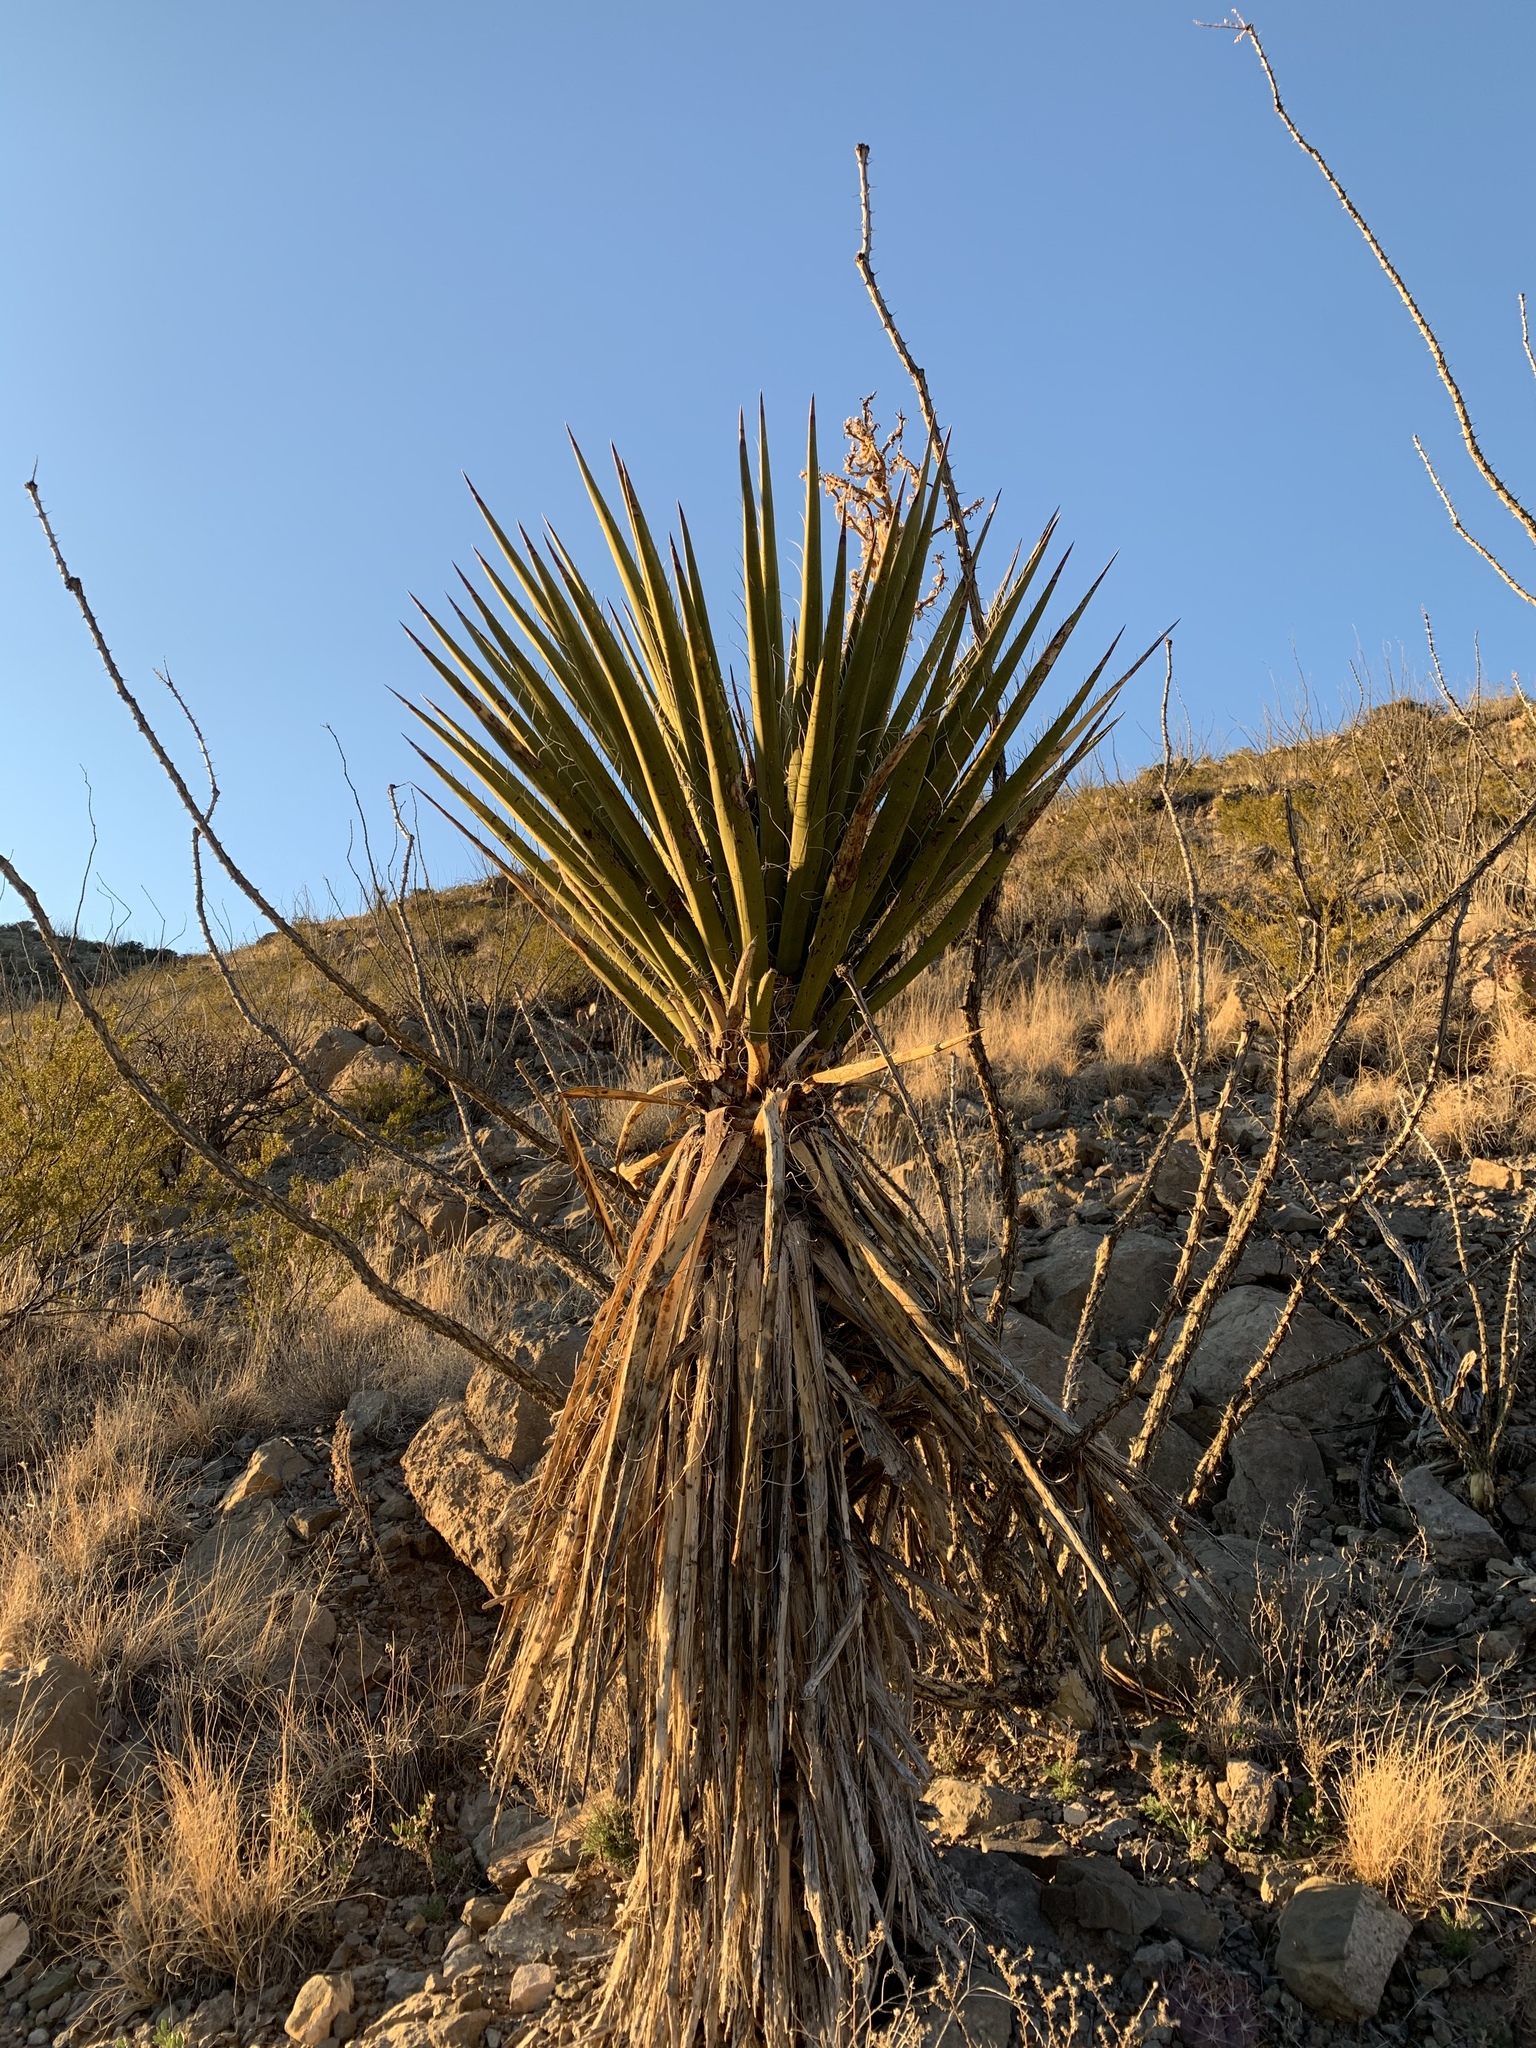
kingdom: Plantae
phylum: Tracheophyta
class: Liliopsida
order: Asparagales
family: Asparagaceae
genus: Yucca
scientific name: Yucca treculiana
